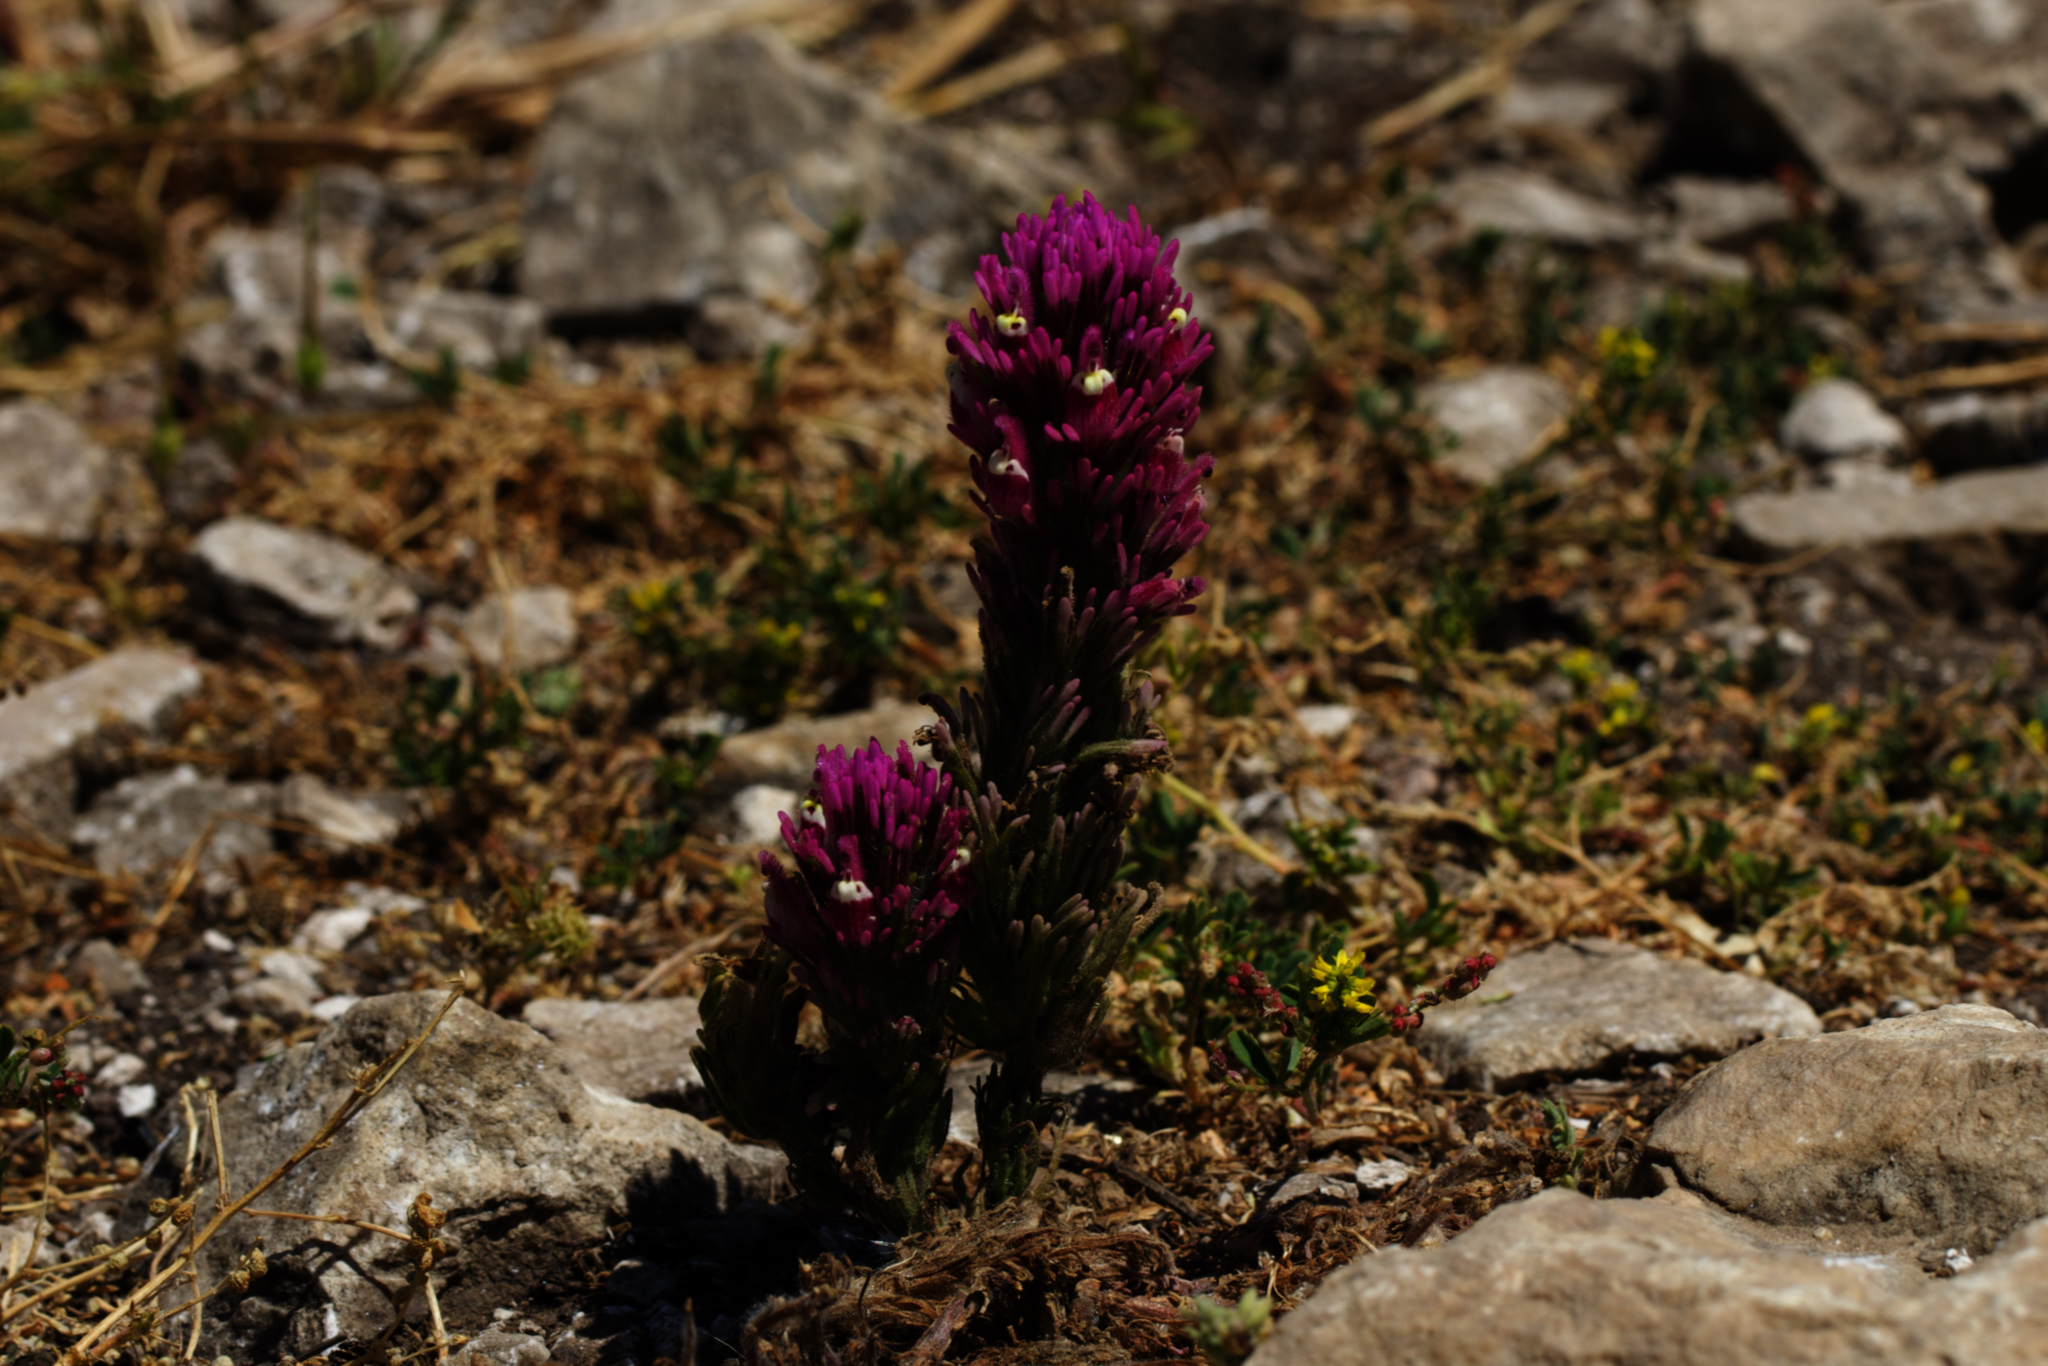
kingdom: Plantae
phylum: Tracheophyta
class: Magnoliopsida
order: Lamiales
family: Orobanchaceae
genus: Castilleja
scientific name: Castilleja exserta
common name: Purple owl-clover
